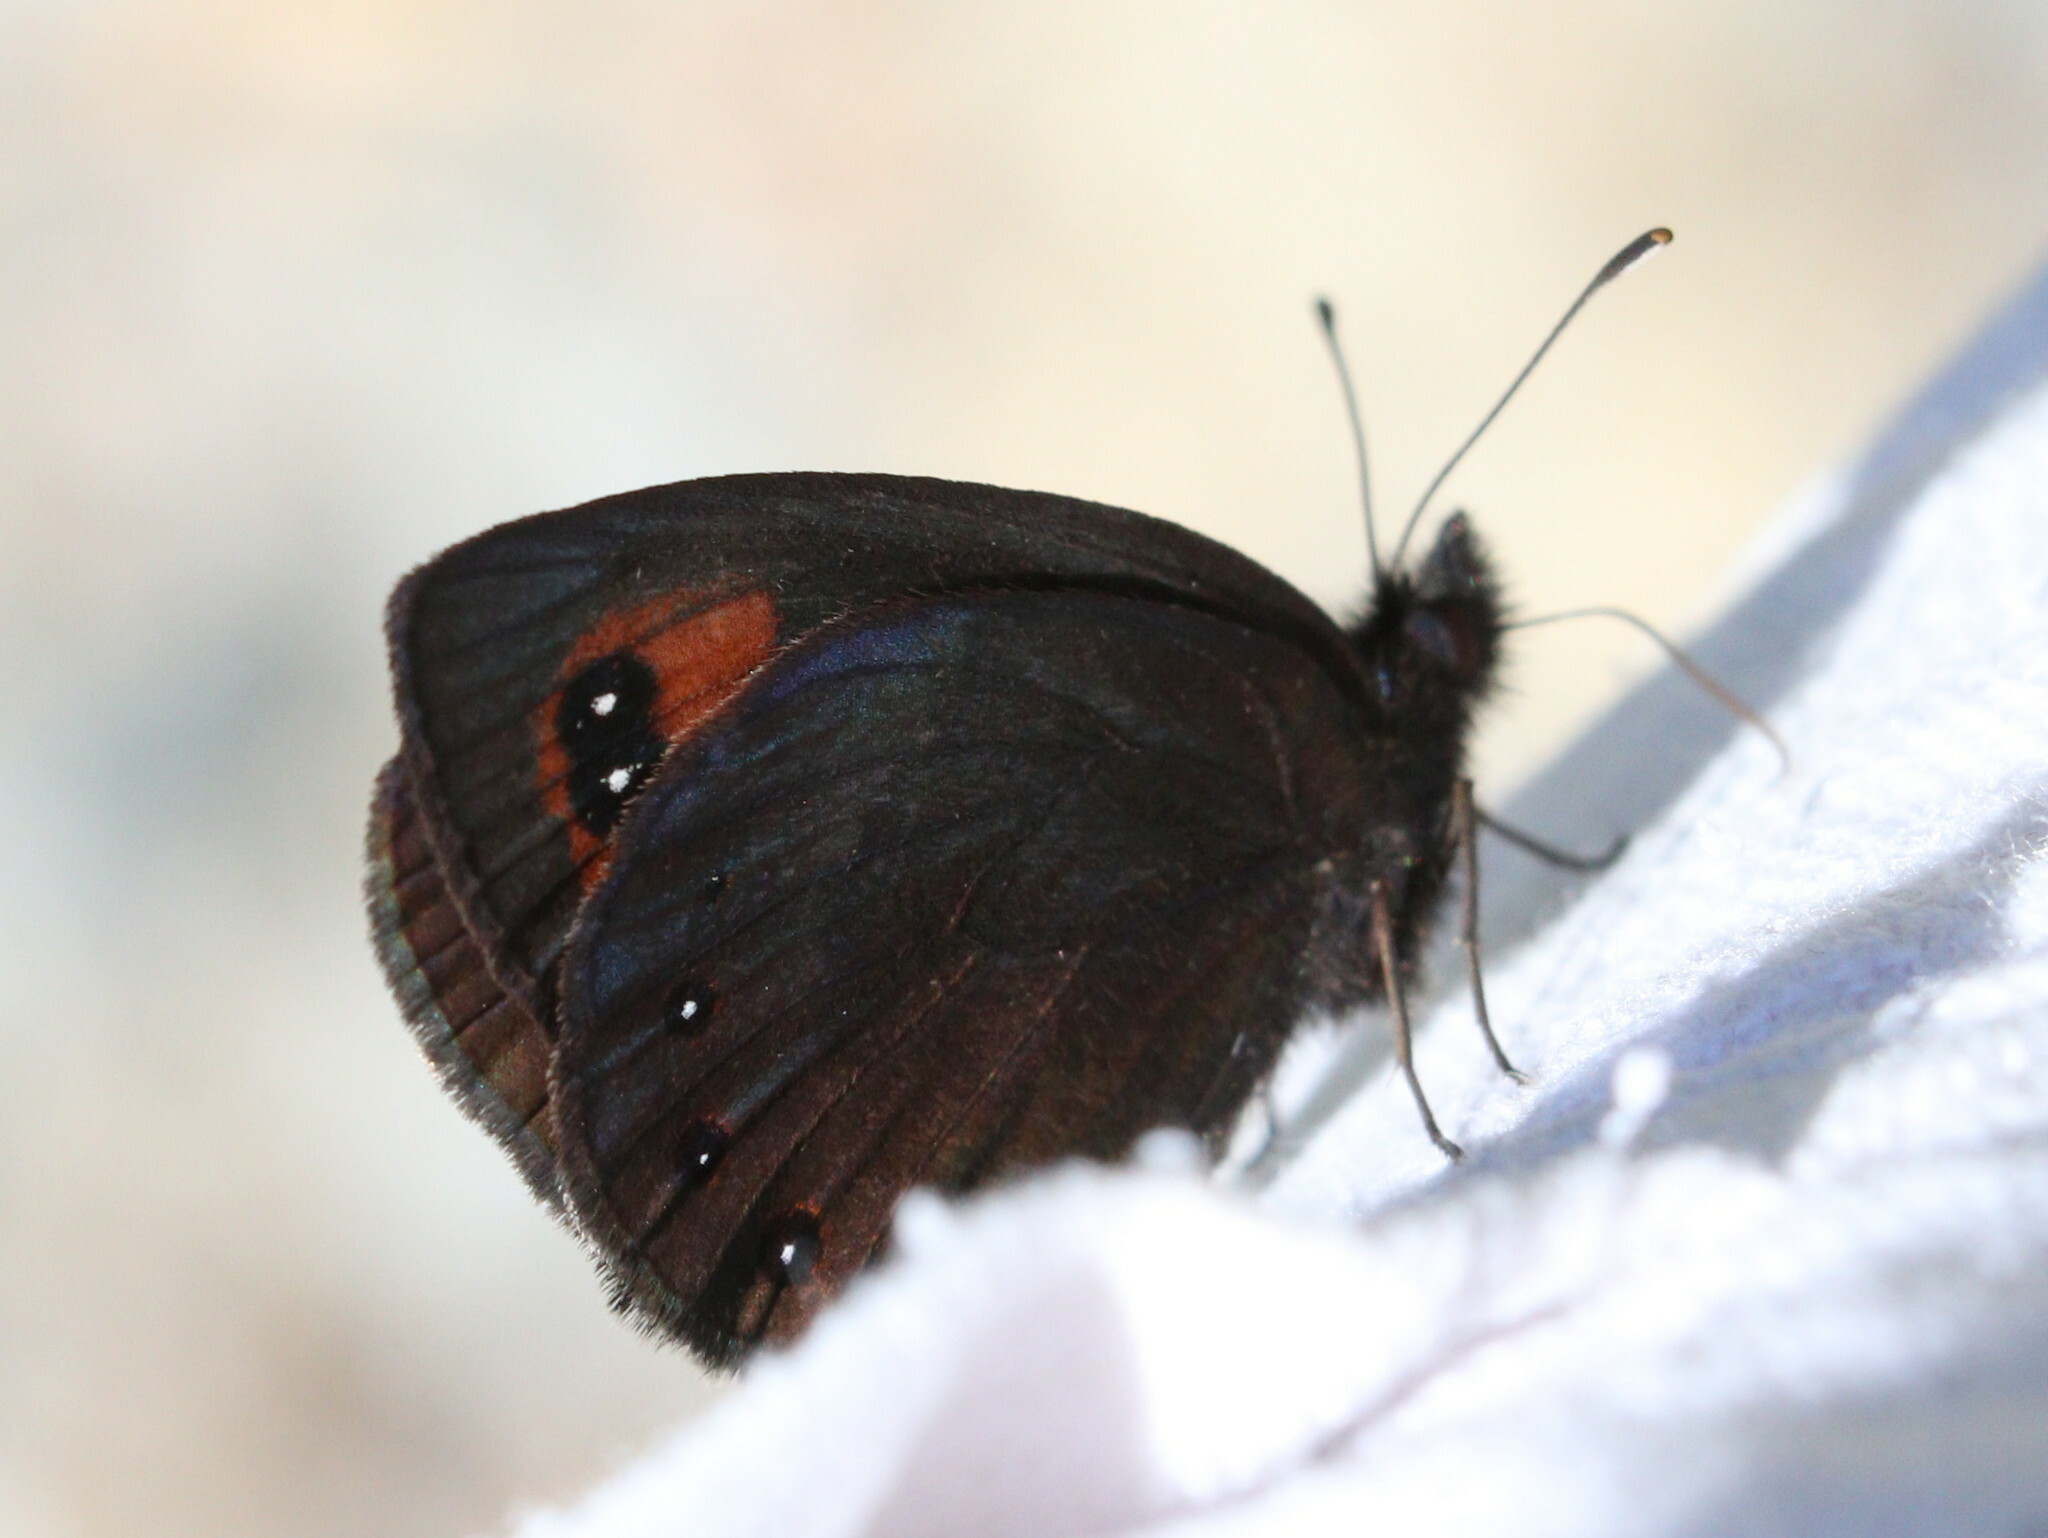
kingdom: Animalia
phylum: Arthropoda
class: Insecta
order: Lepidoptera
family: Nymphalidae
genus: Erebia
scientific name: Erebia meolans
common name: Piedmont ringlet
